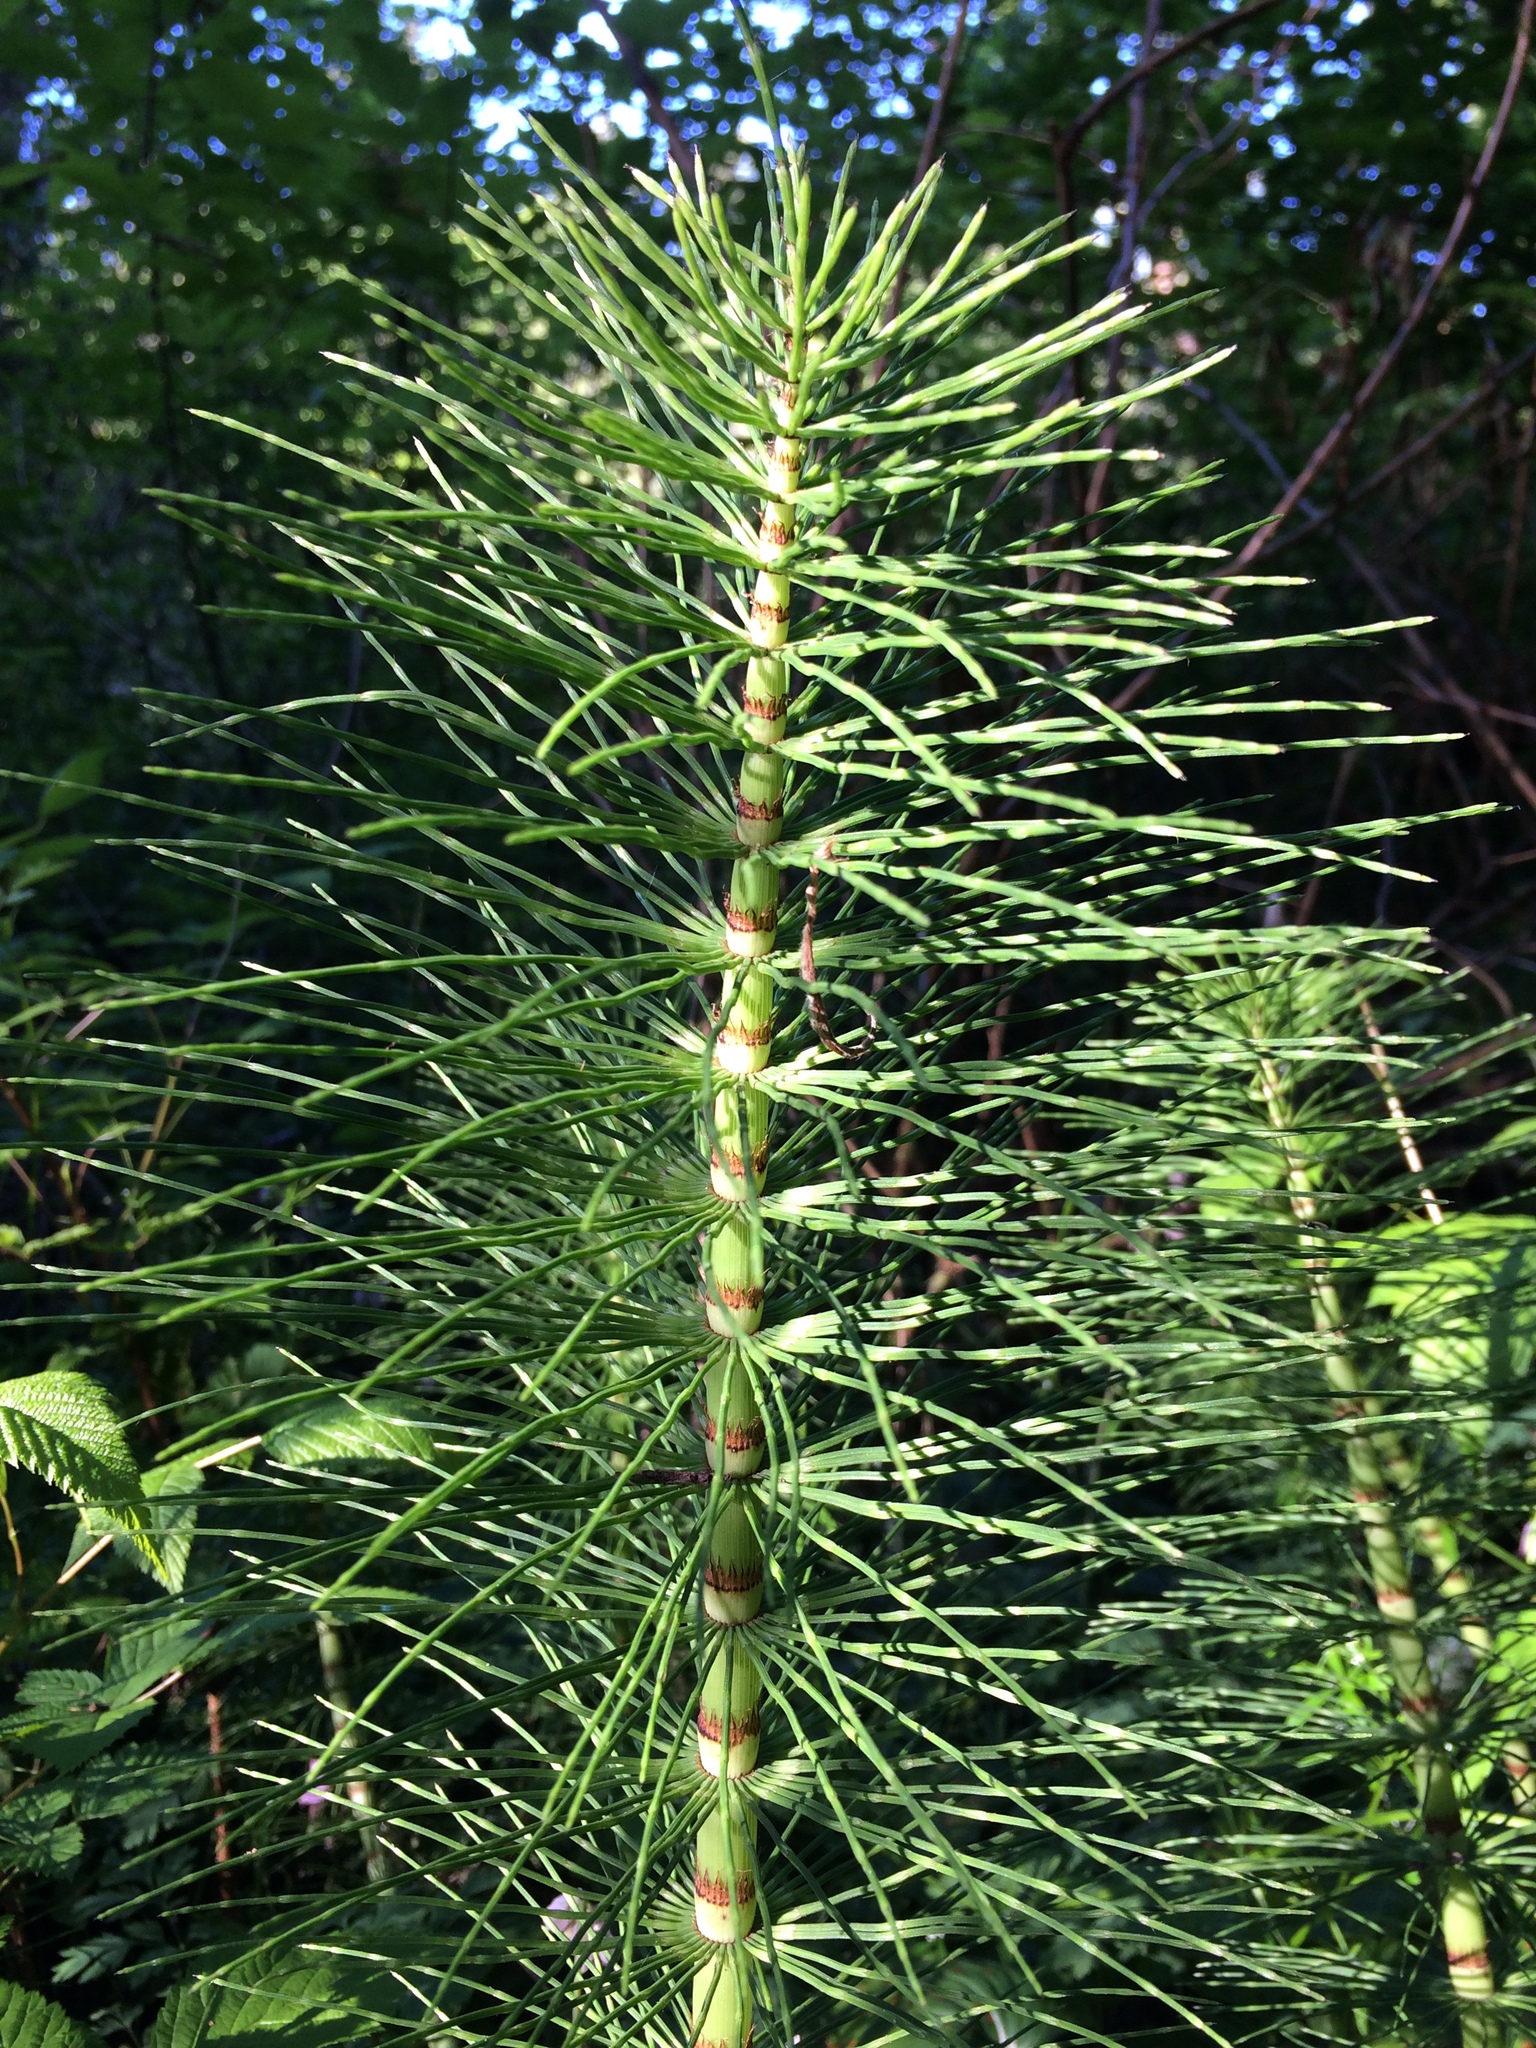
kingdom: Plantae
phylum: Tracheophyta
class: Polypodiopsida
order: Equisetales
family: Equisetaceae
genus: Equisetum
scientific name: Equisetum braunii
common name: Braun's horsetail
